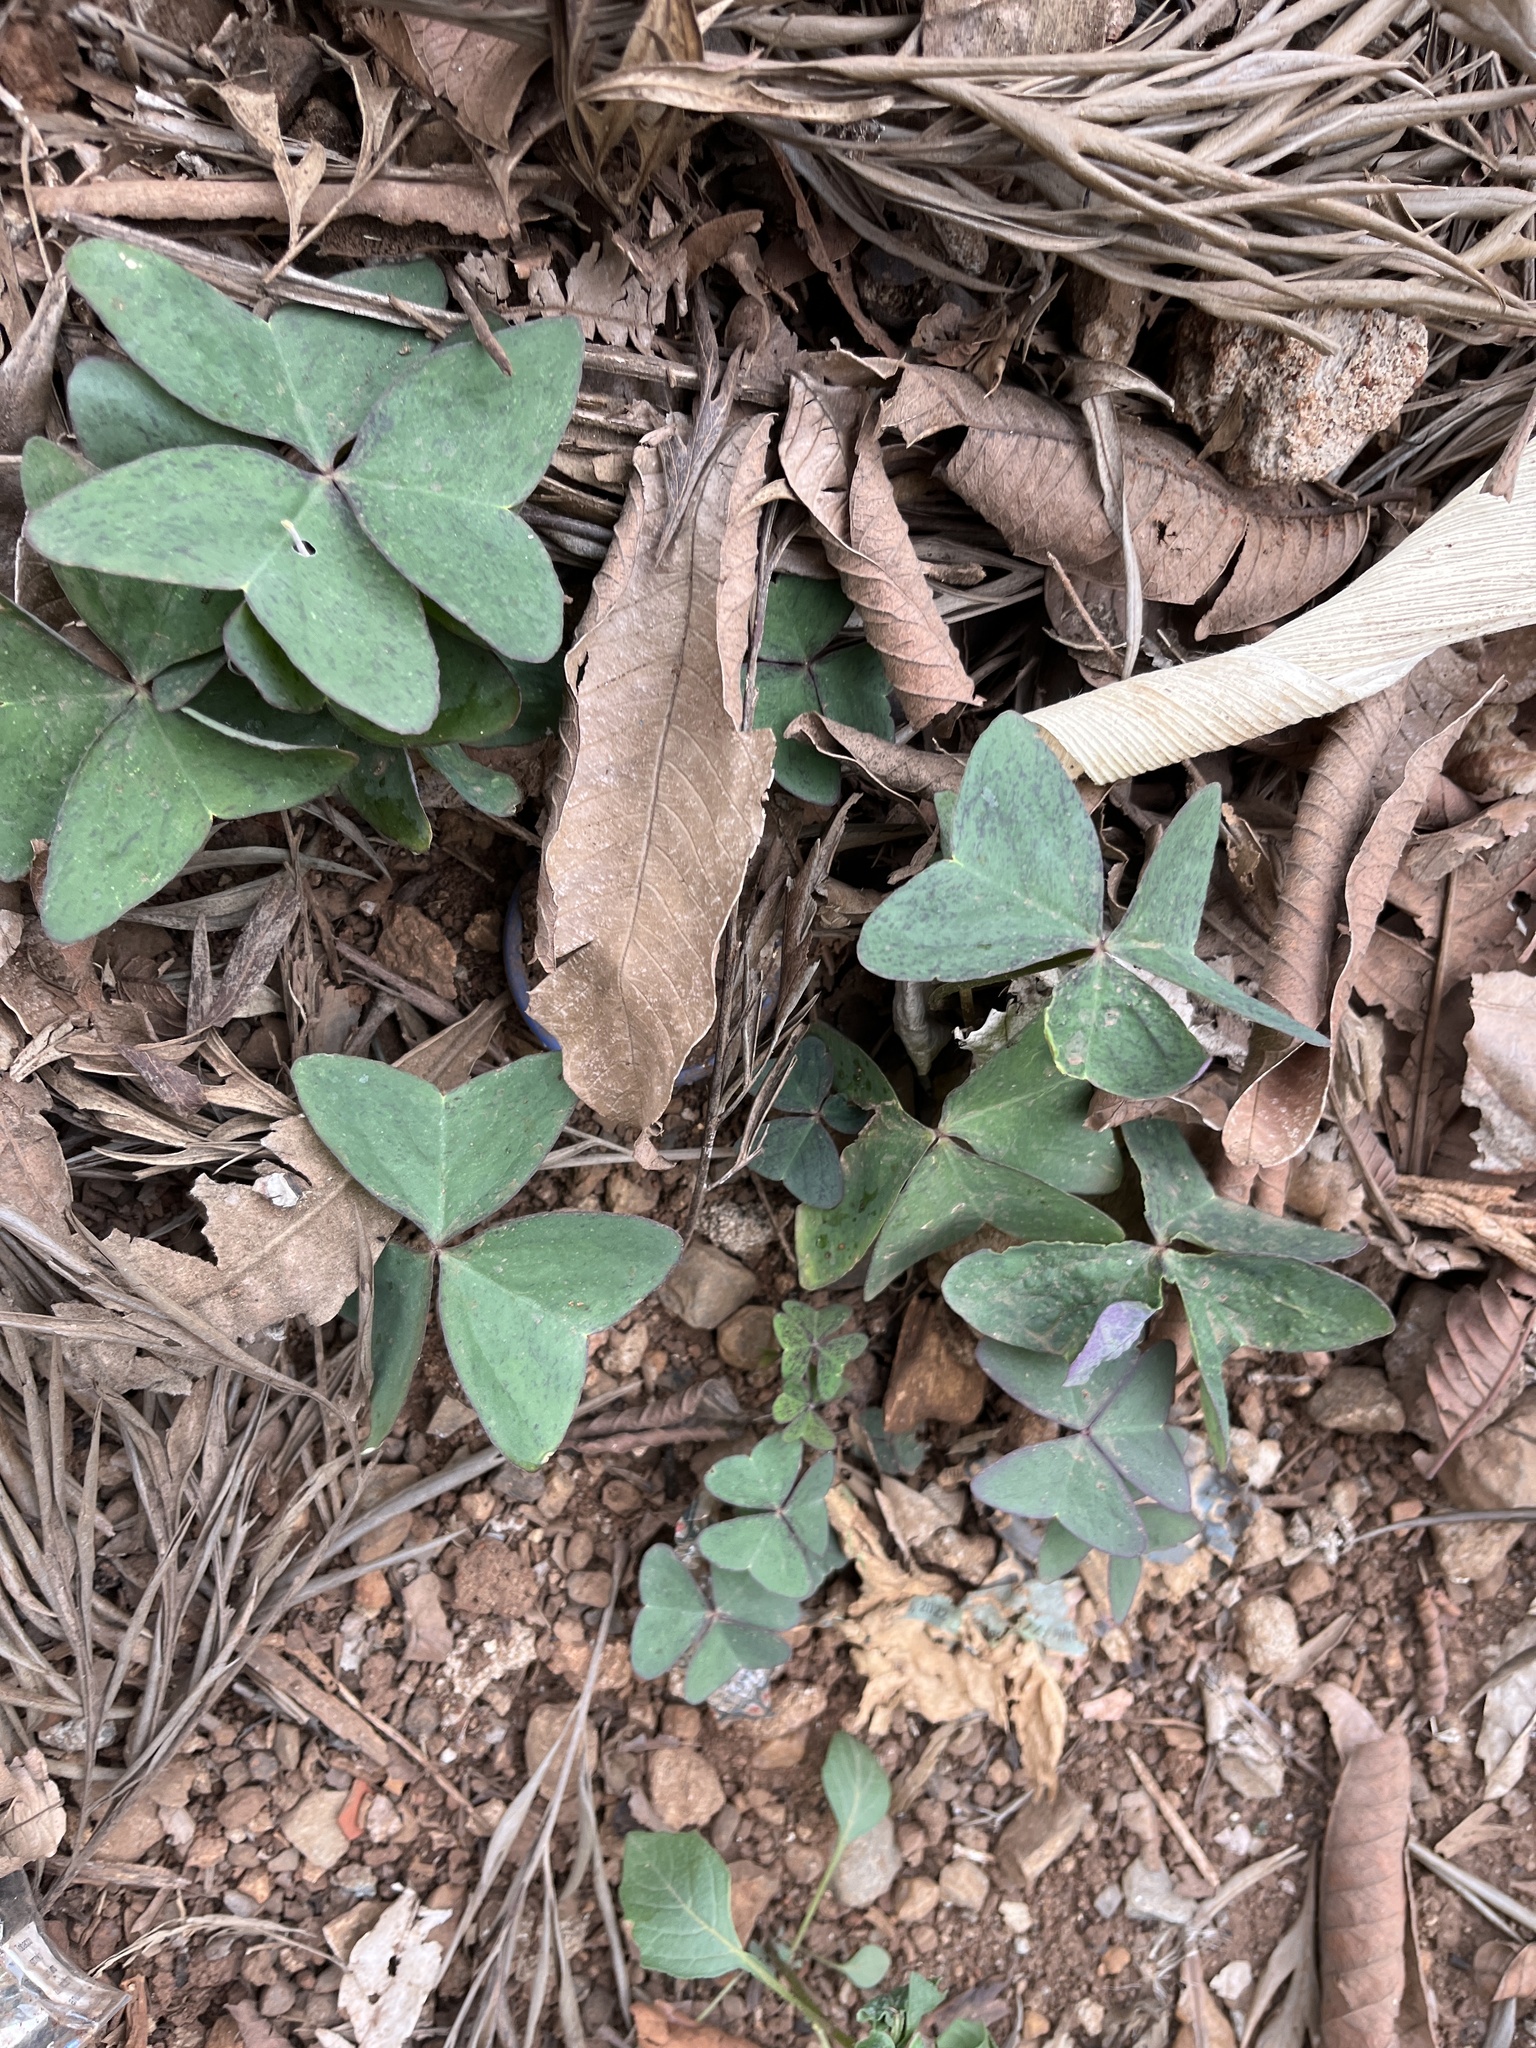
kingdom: Plantae
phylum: Tracheophyta
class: Magnoliopsida
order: Oxalidales
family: Oxalidaceae
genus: Oxalis
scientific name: Oxalis latifolia
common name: Garden pink-sorrel
